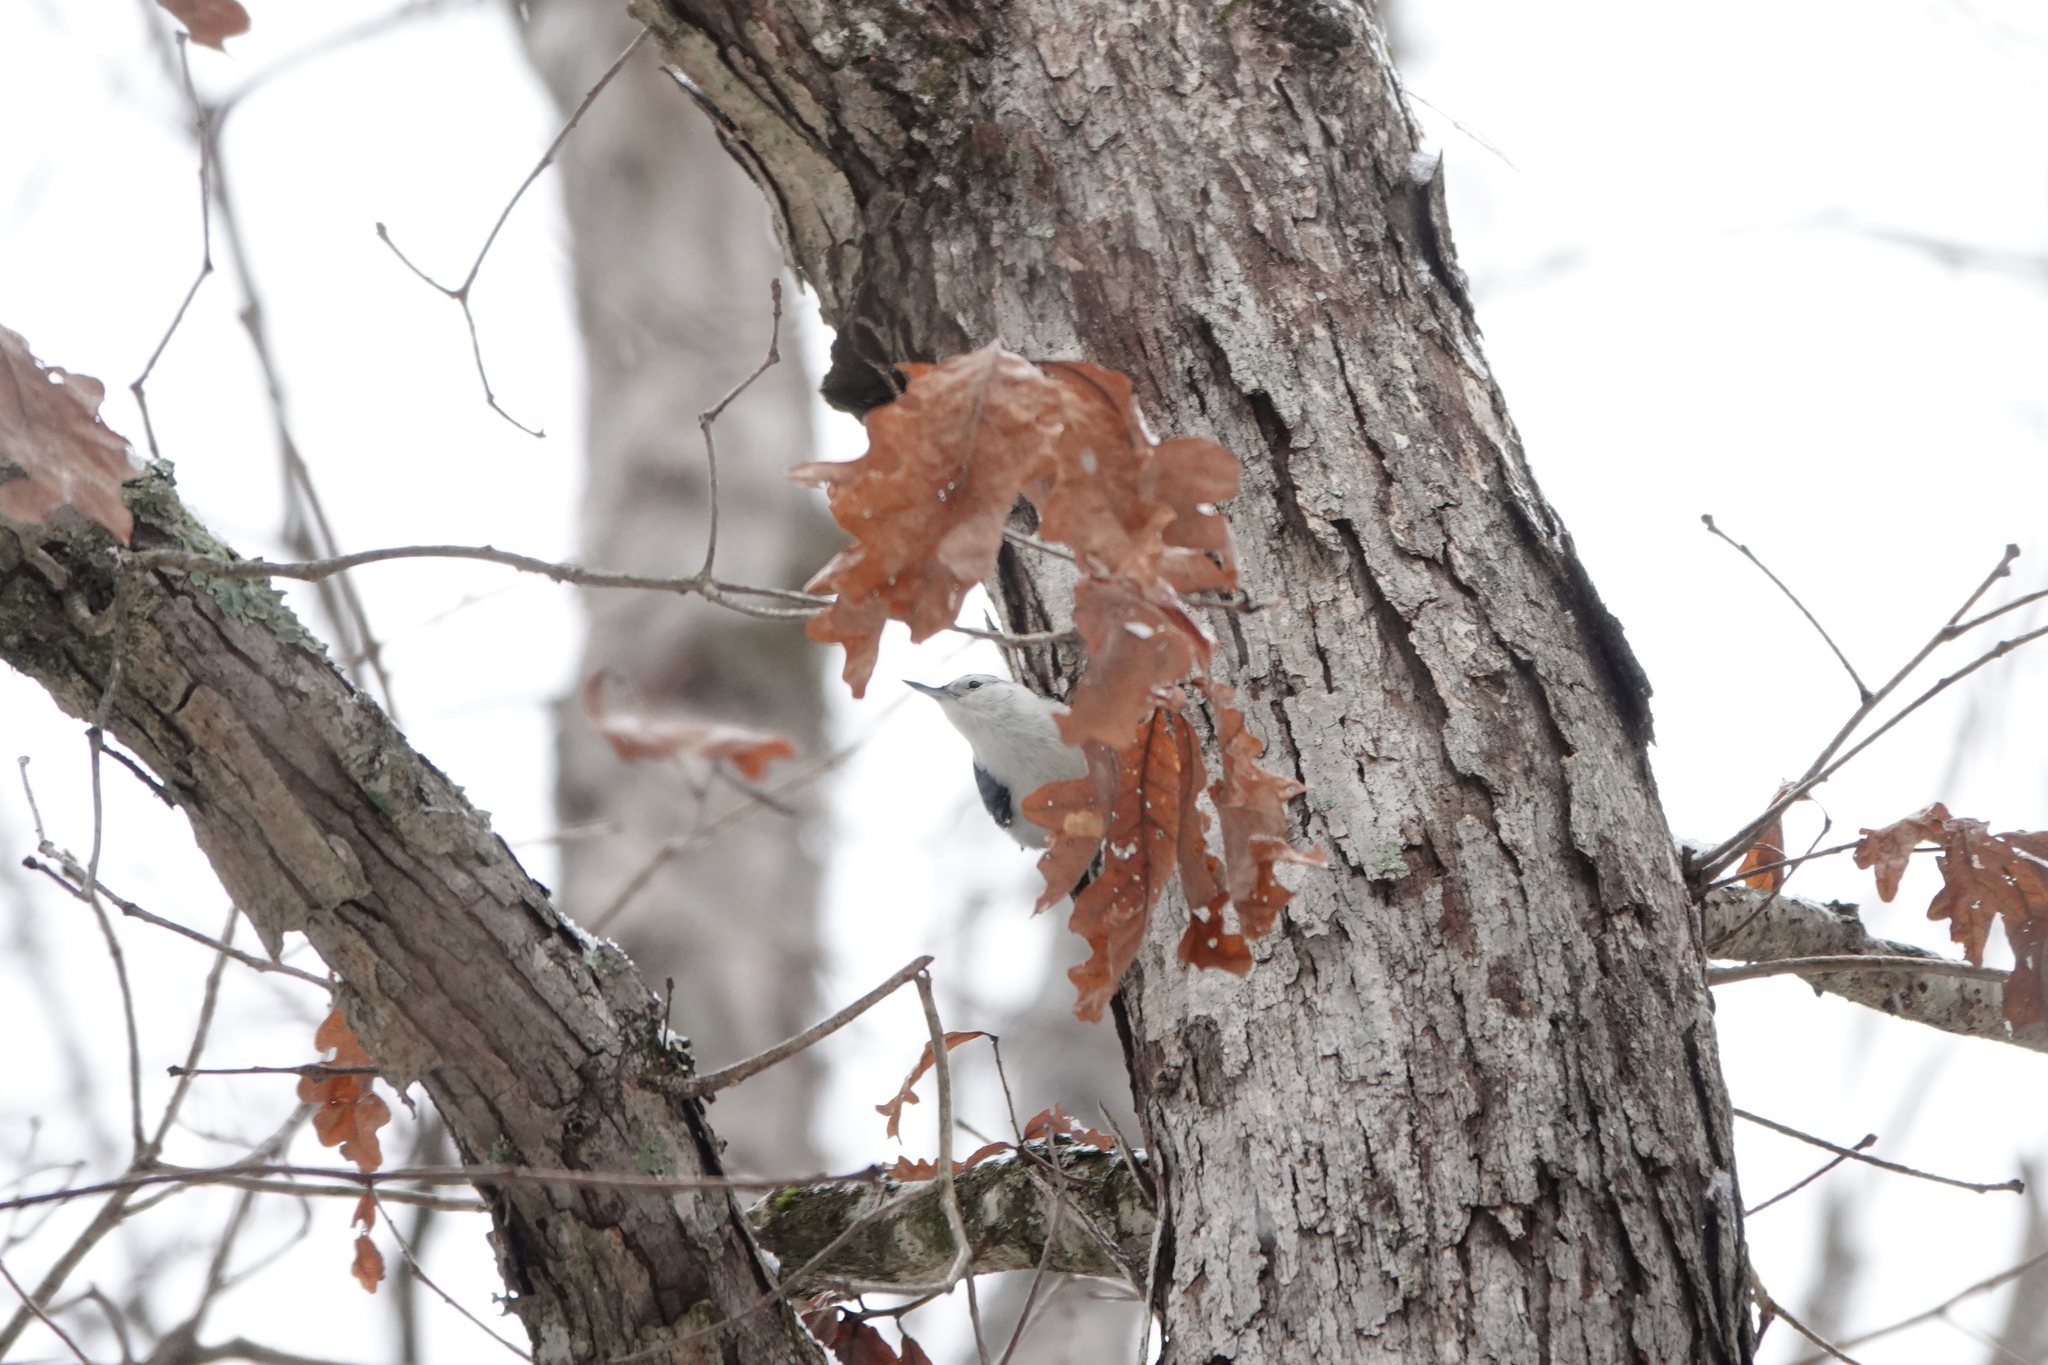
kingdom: Animalia
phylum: Chordata
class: Aves
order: Passeriformes
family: Sittidae
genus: Sitta
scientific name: Sitta carolinensis
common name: White-breasted nuthatch
